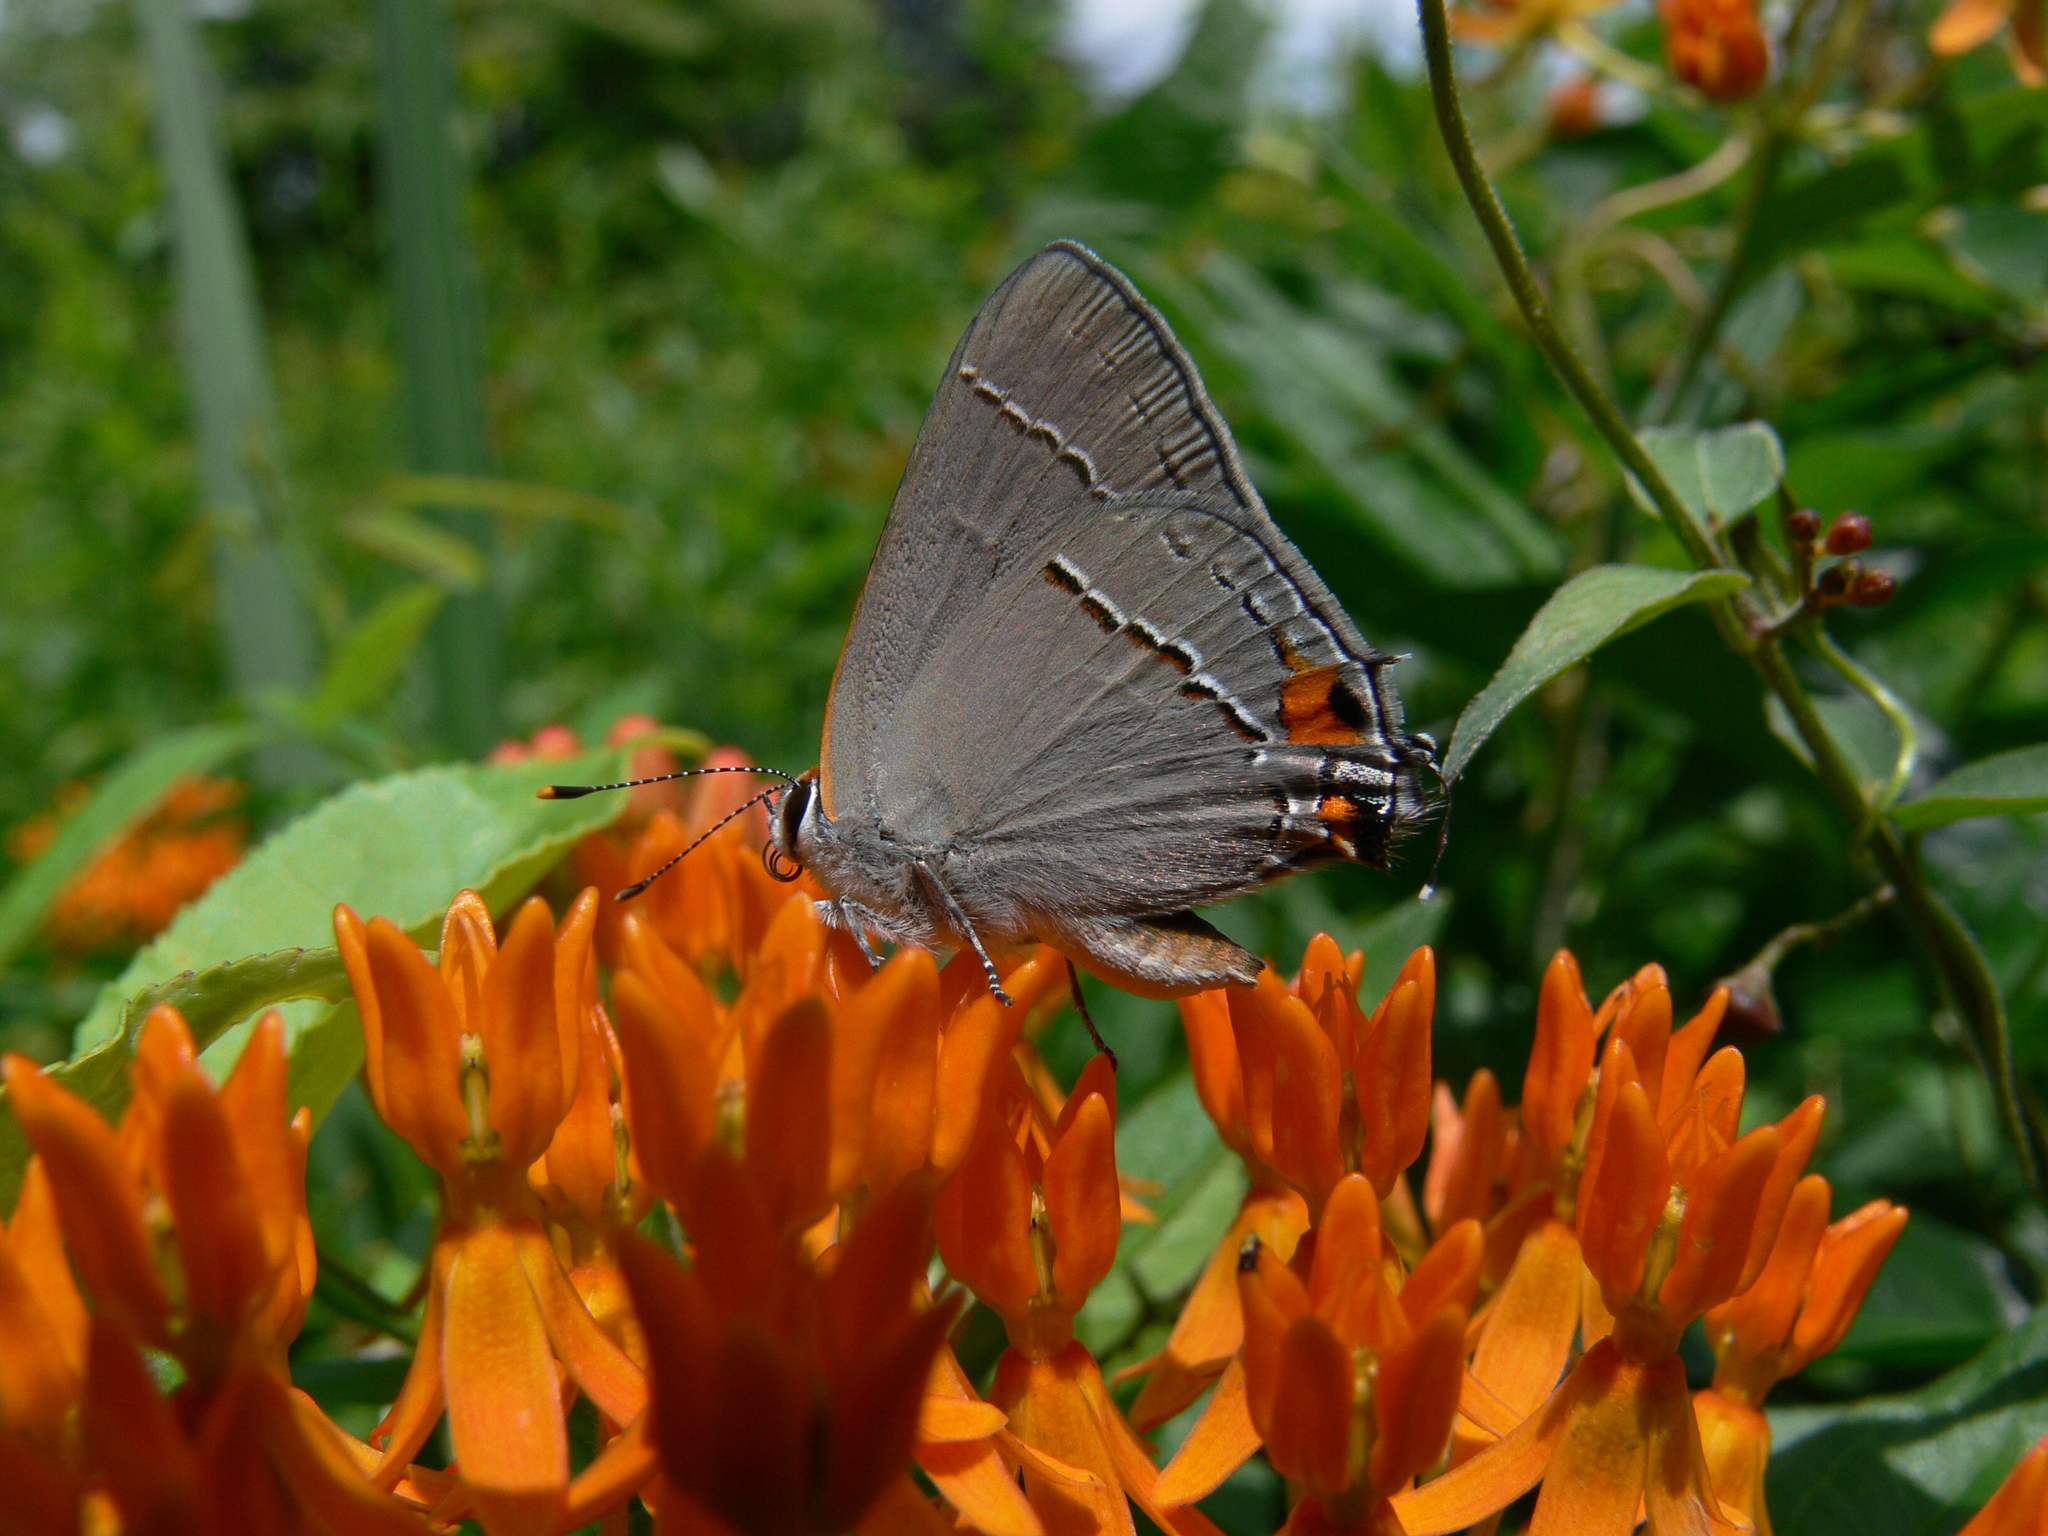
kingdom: Animalia
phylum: Arthropoda
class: Insecta
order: Lepidoptera
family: Lycaenidae
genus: Strymon
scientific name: Strymon melinus
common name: Gray hairstreak
